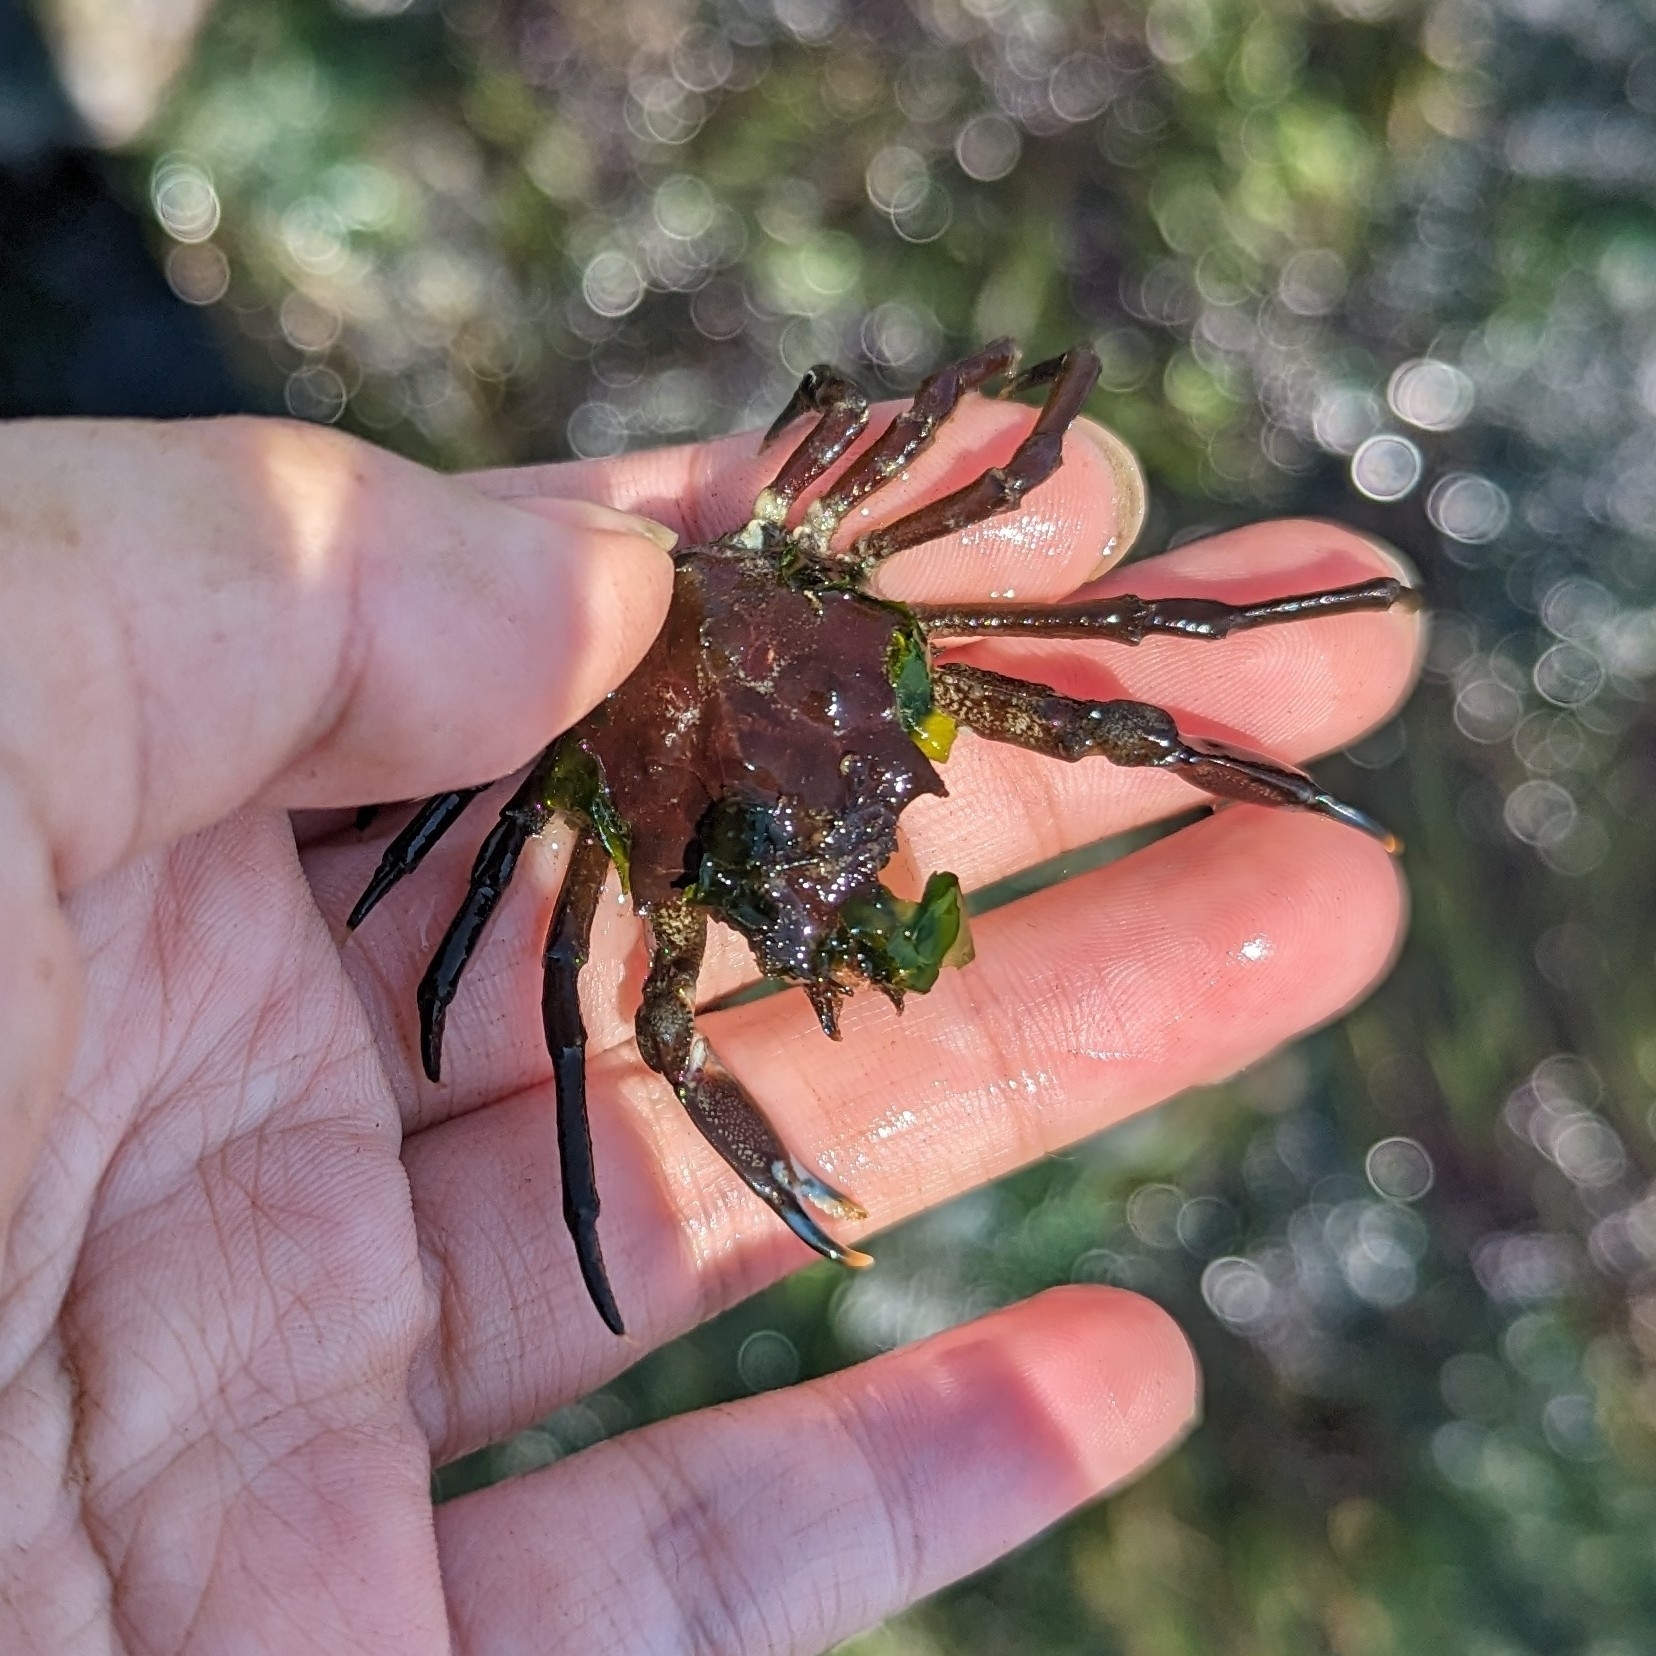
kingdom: Animalia
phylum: Arthropoda
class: Malacostraca
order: Decapoda
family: Epialtidae
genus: Pugettia
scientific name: Pugettia gracilis
